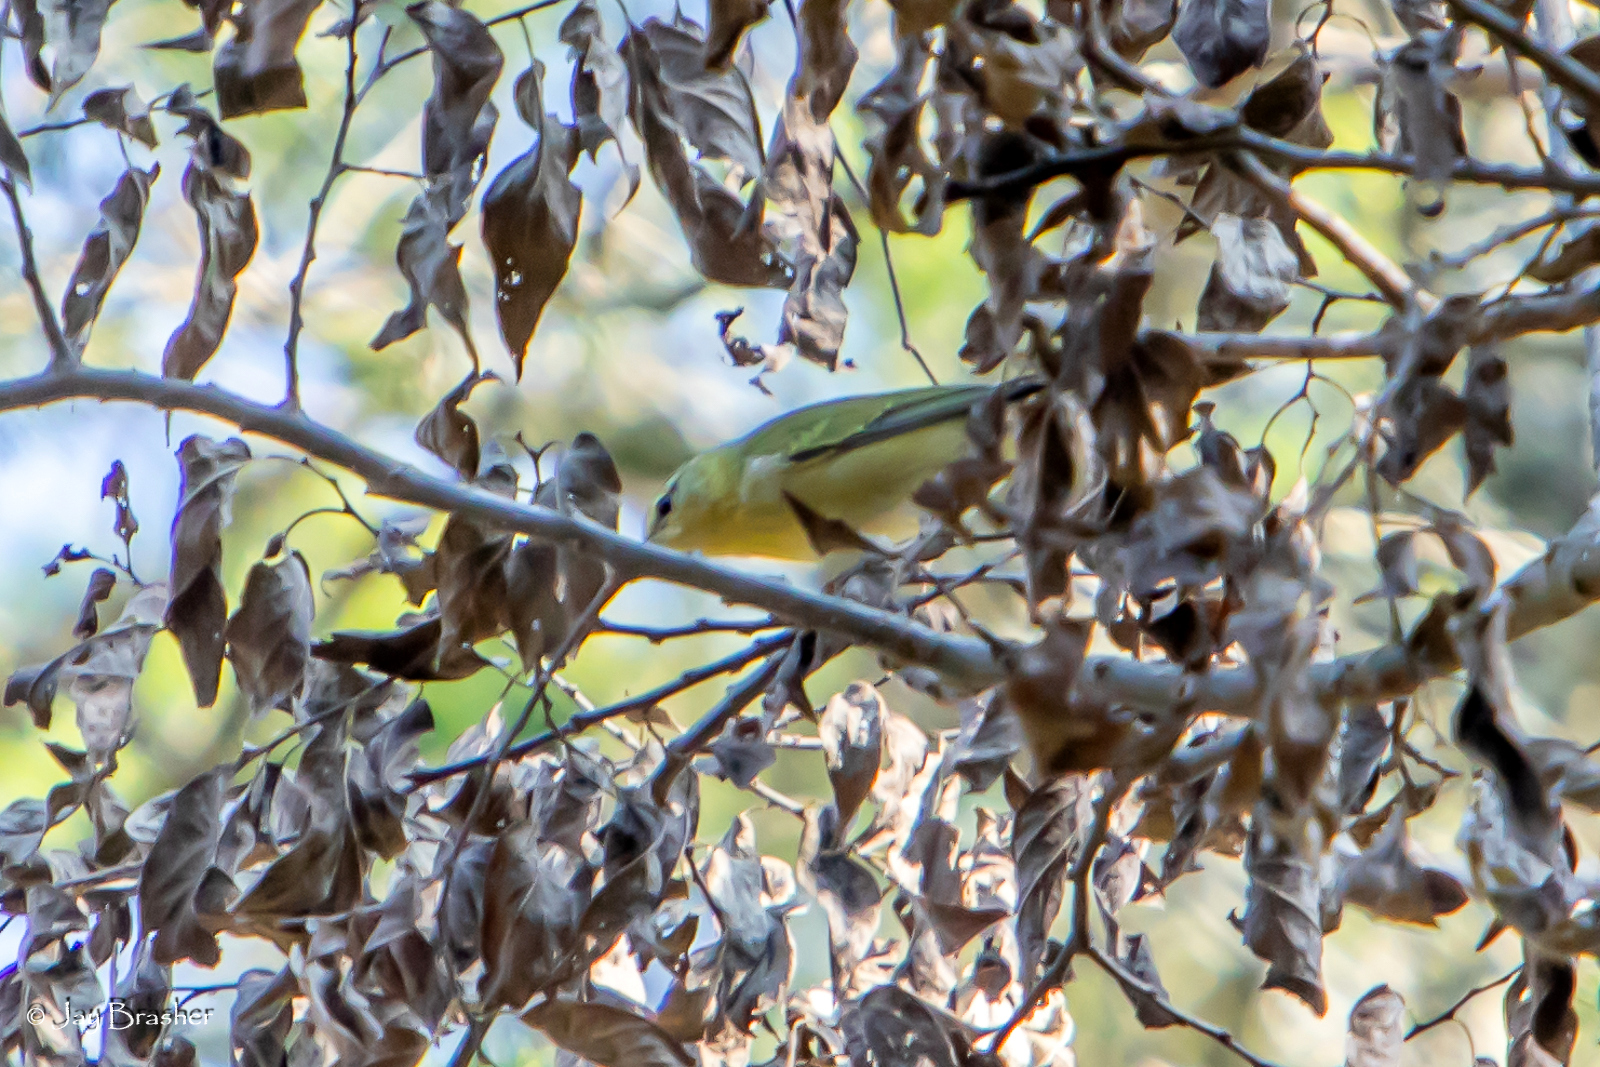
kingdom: Animalia
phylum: Chordata
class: Aves
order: Passeriformes
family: Parulidae
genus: Leiothlypis
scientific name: Leiothlypis peregrina
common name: Tennessee warbler
